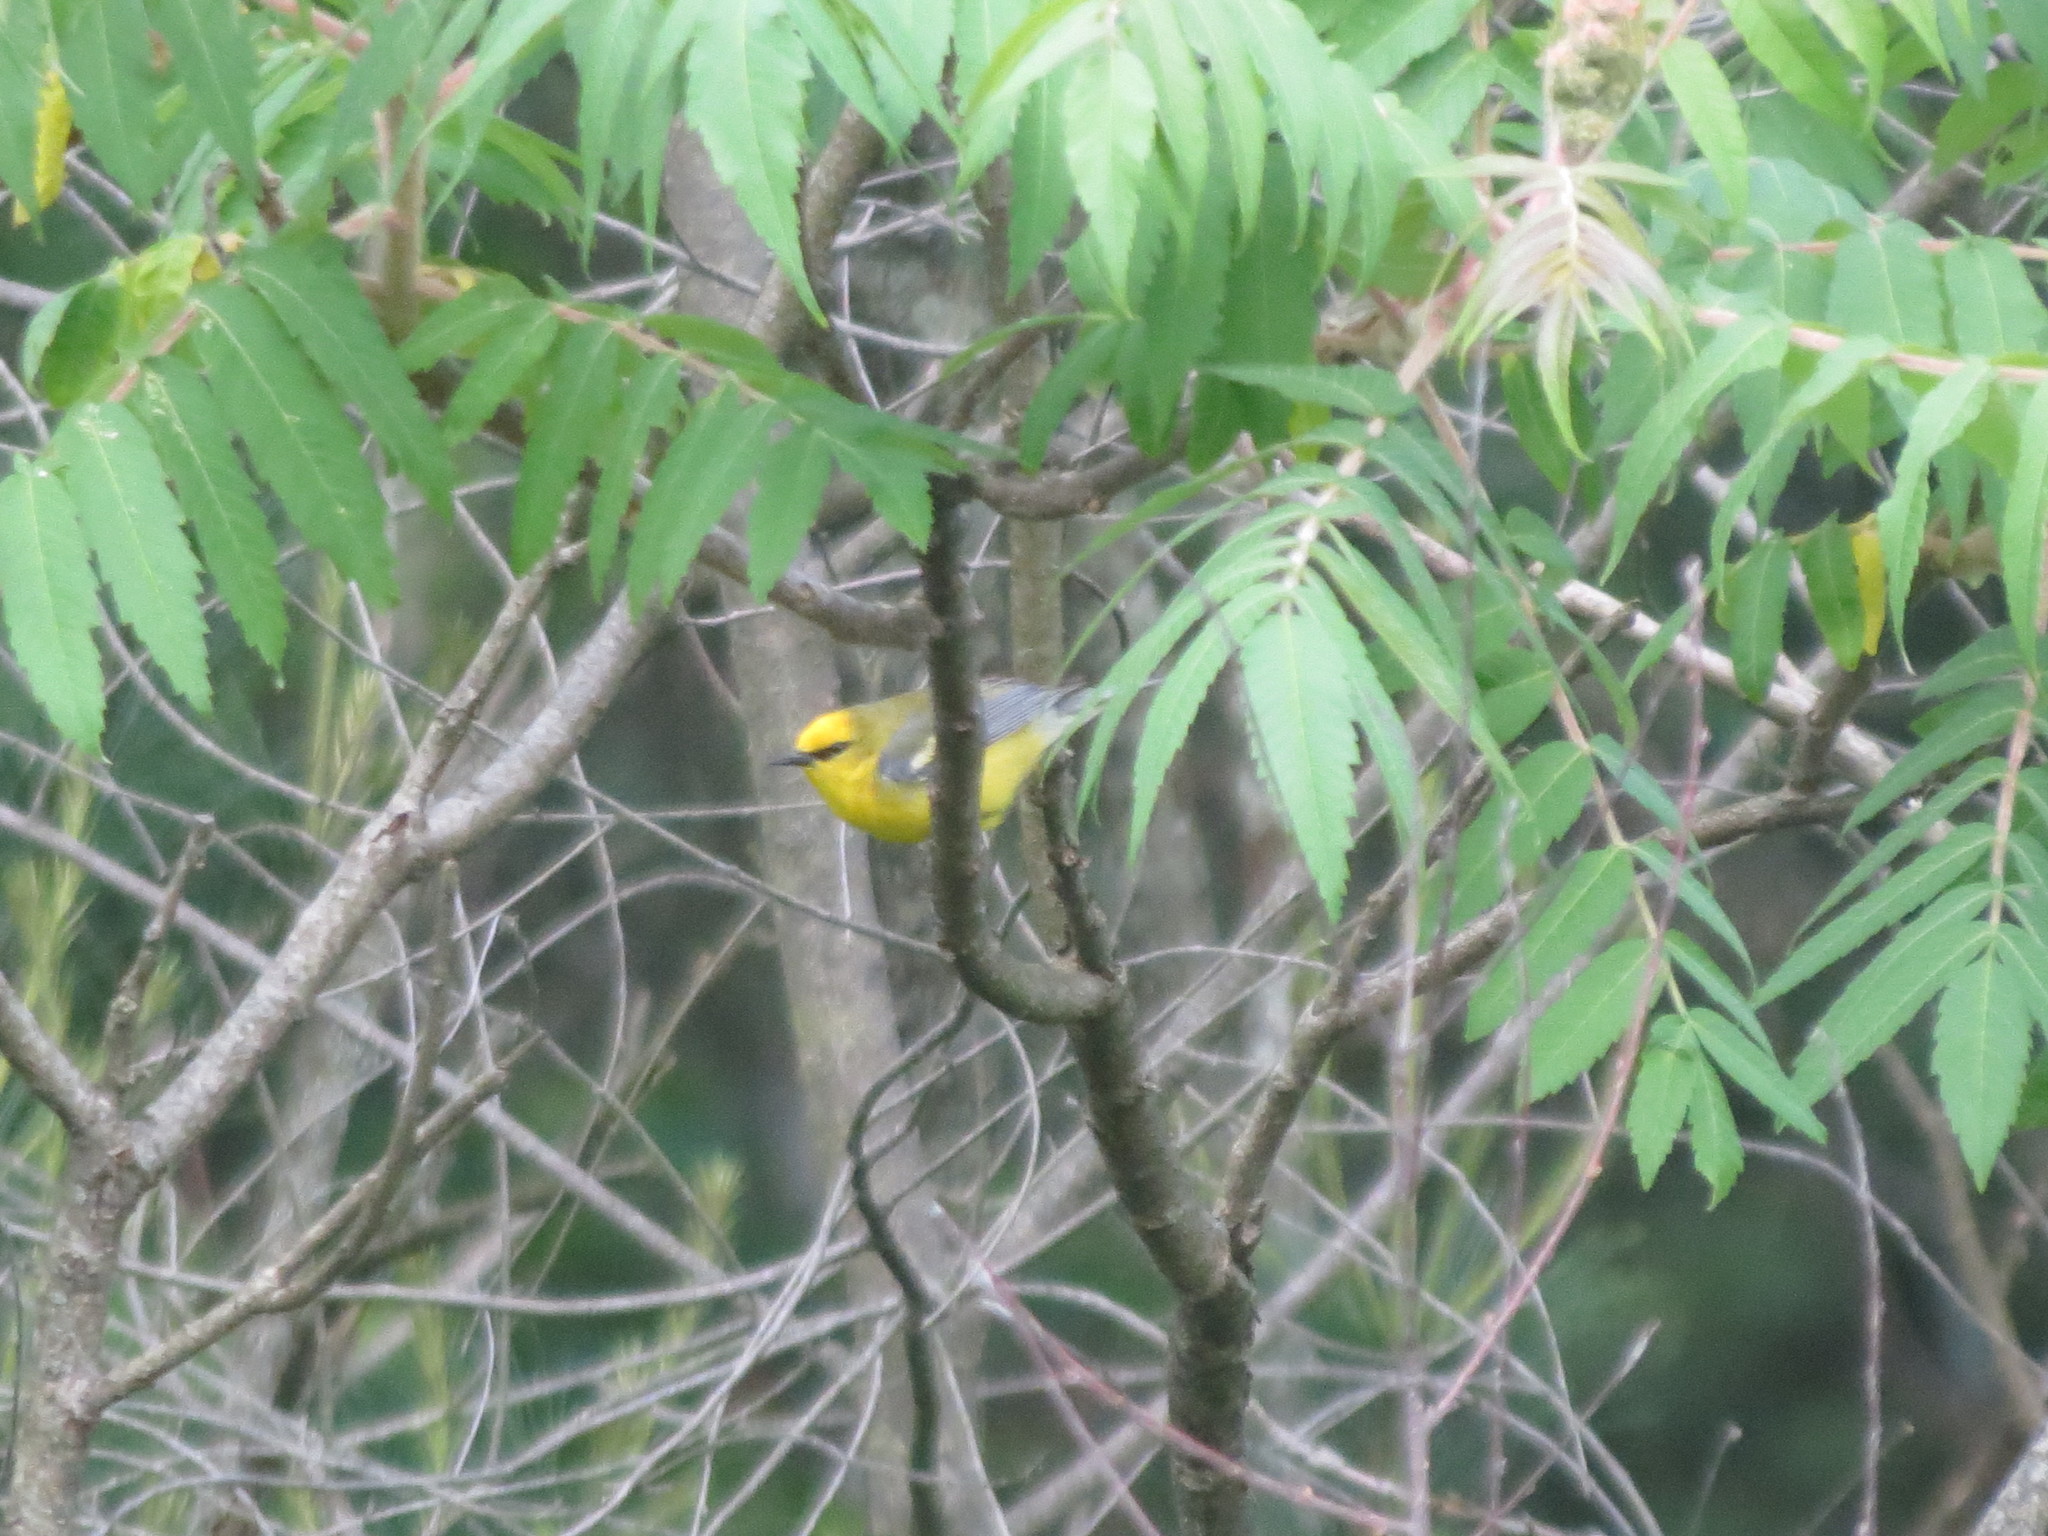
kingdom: Animalia
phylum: Chordata
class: Aves
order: Passeriformes
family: Parulidae
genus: Vermivora
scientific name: Vermivora cyanoptera
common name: Blue-winged warbler
